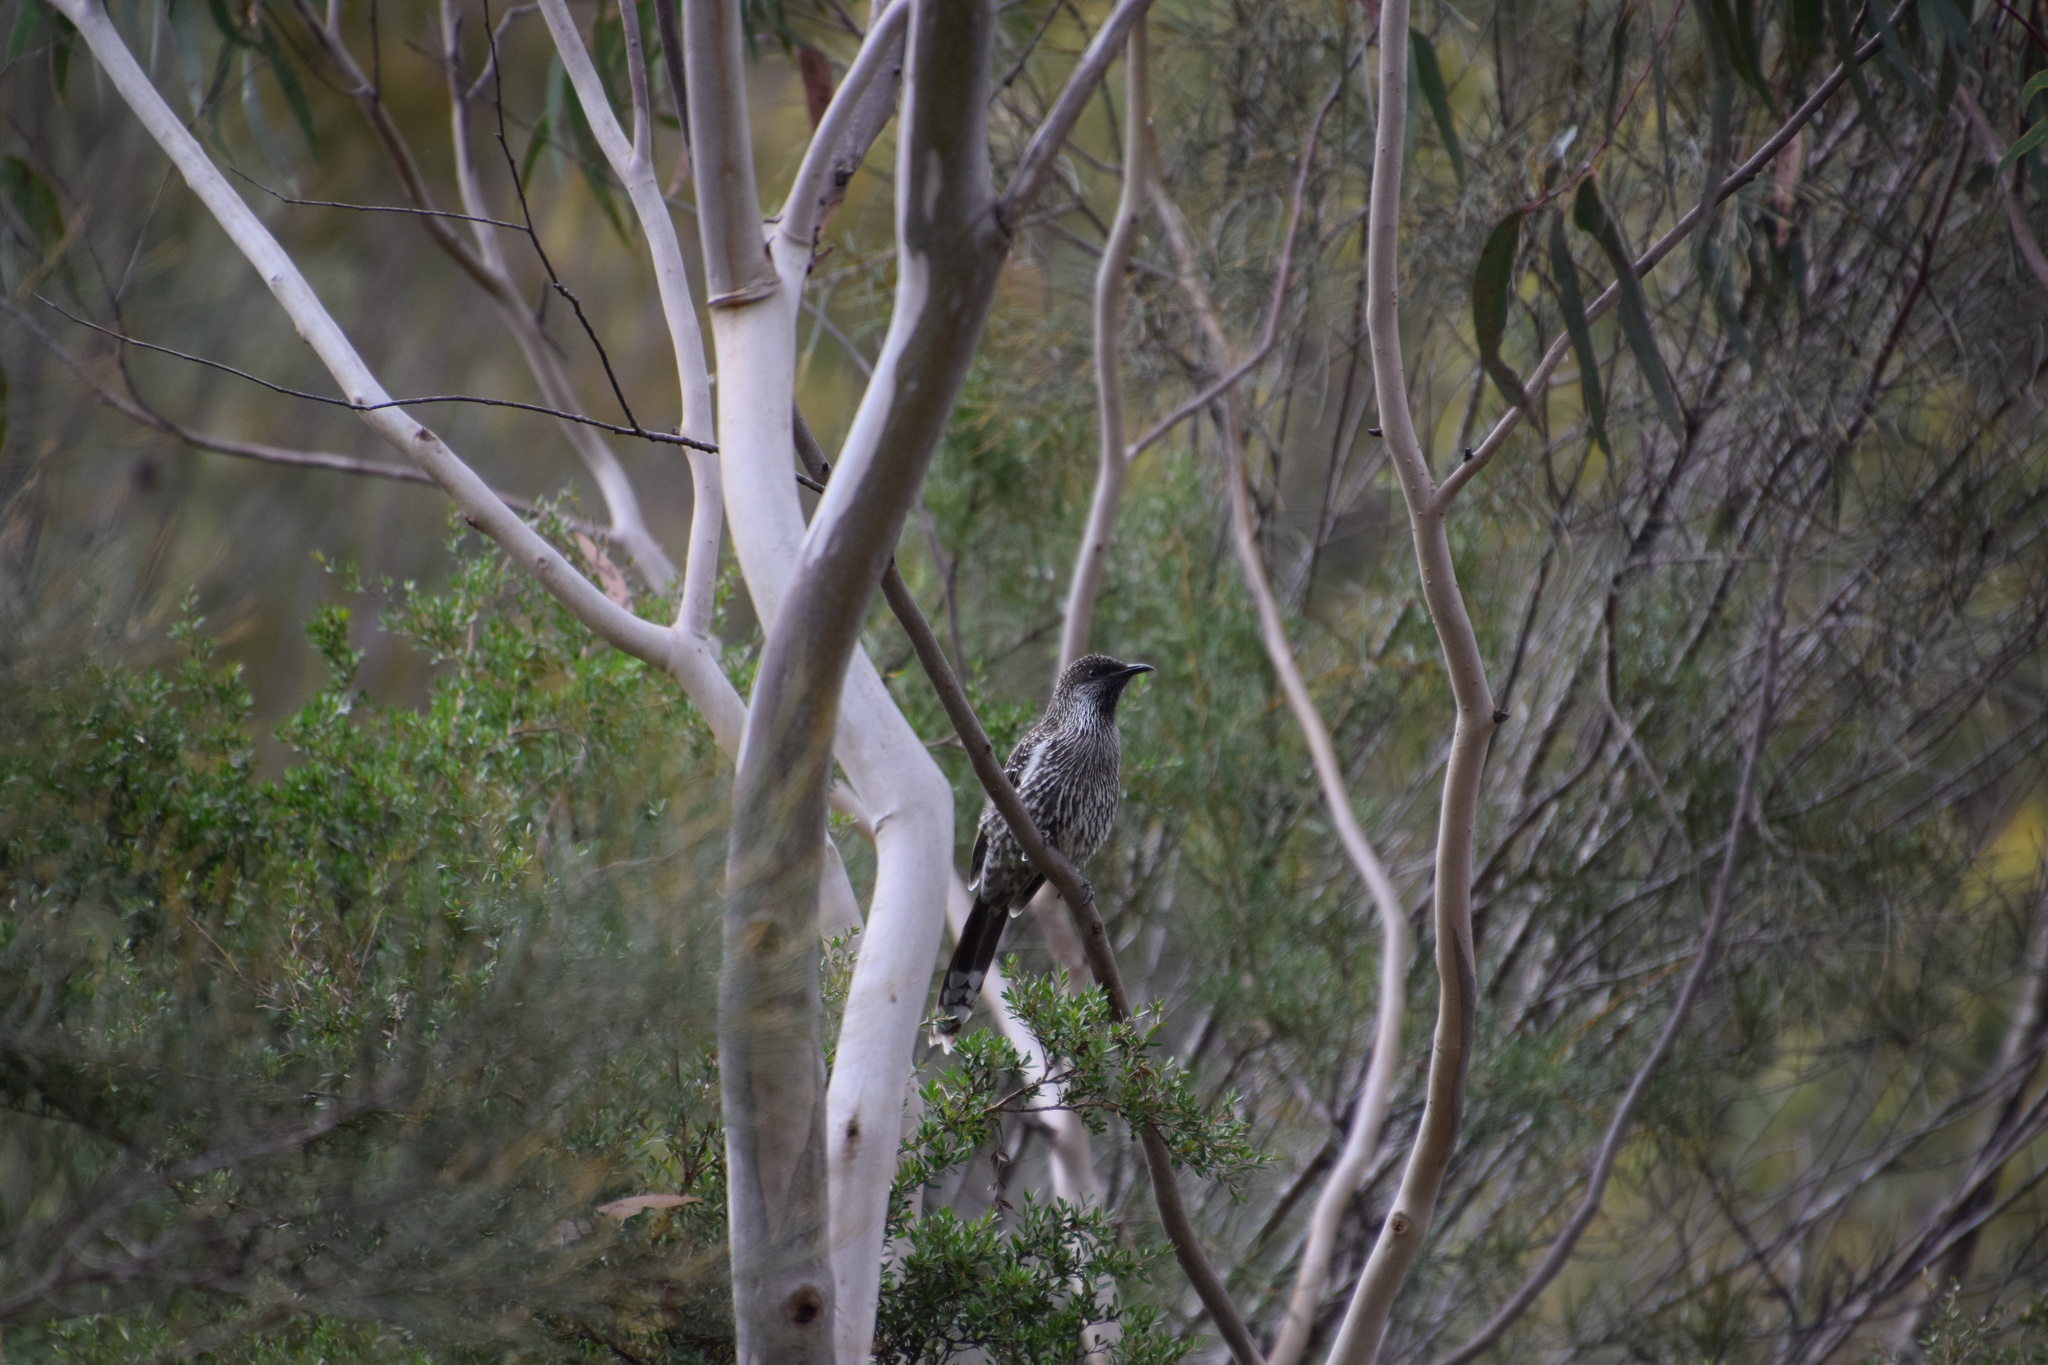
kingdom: Animalia
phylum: Chordata
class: Aves
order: Passeriformes
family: Meliphagidae
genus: Anthochaera
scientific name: Anthochaera chrysoptera
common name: Little wattlebird
